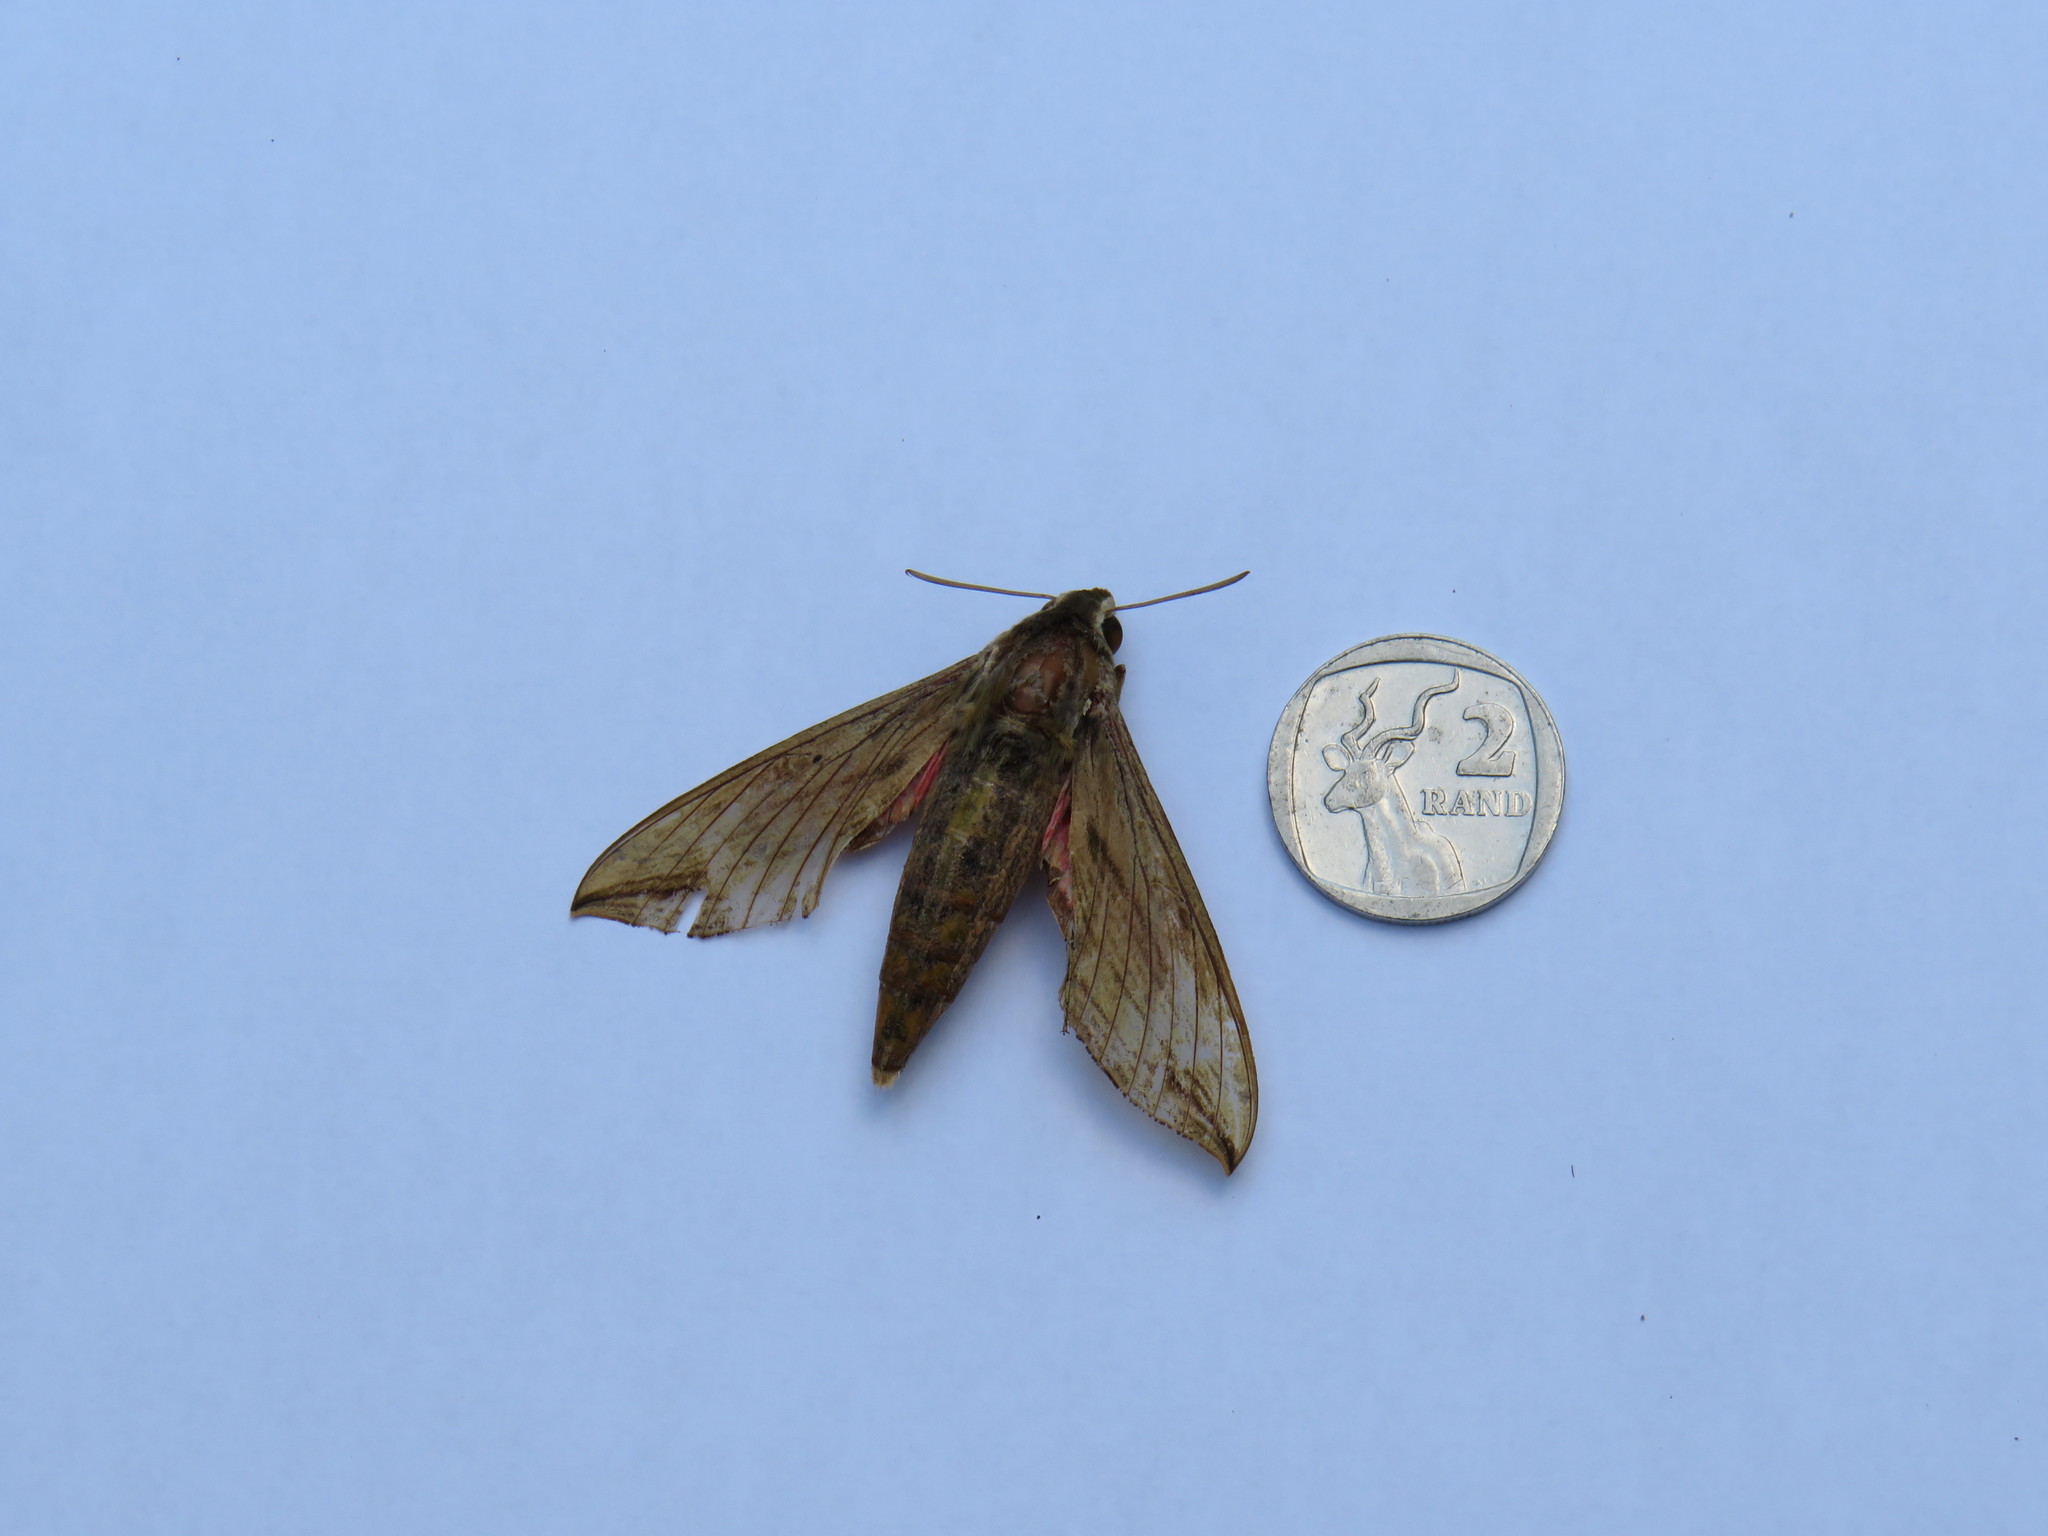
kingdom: Animalia
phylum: Arthropoda
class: Insecta
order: Lepidoptera
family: Sphingidae
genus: Hippotion
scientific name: Hippotion eson
